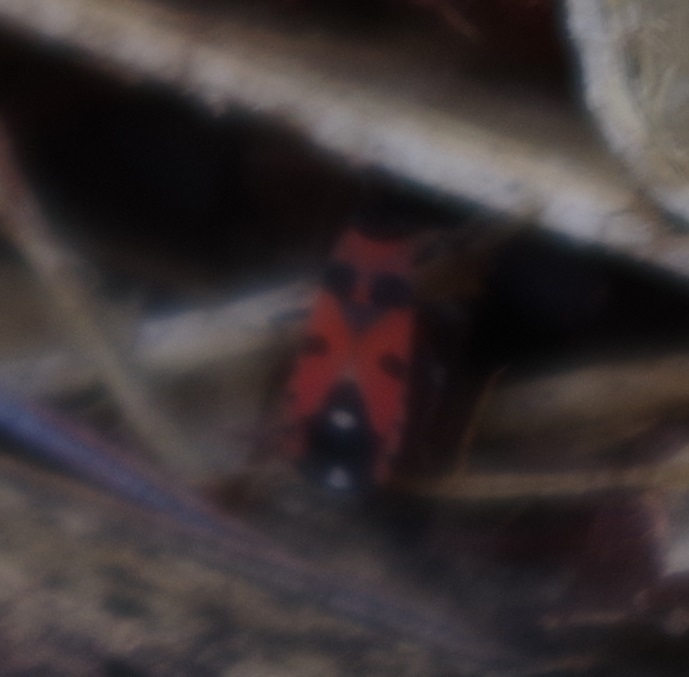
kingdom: Animalia
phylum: Arthropoda
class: Insecta
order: Hemiptera
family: Lygaeidae
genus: Horvathiolus
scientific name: Horvathiolus superbus
